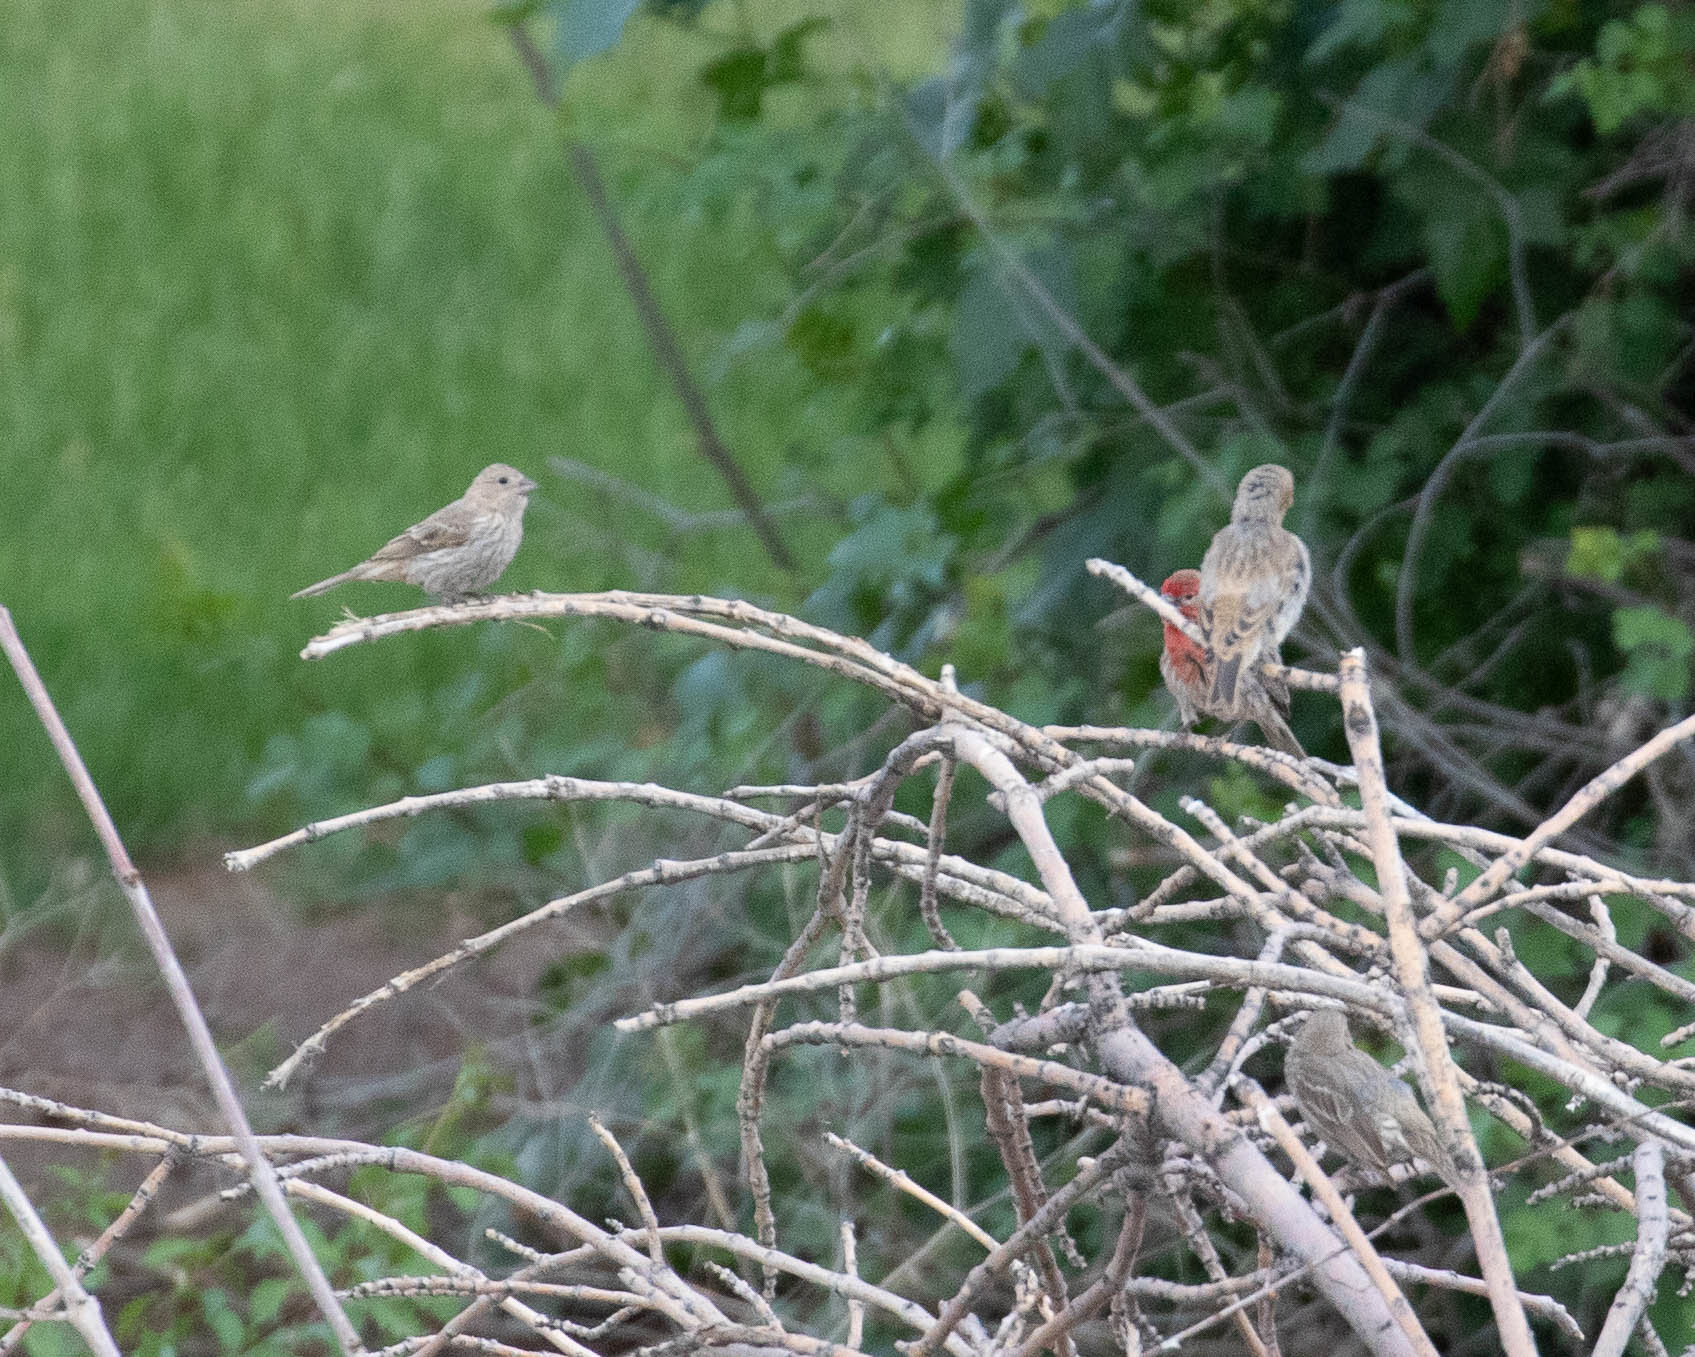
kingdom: Animalia
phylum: Chordata
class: Aves
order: Passeriformes
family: Fringillidae
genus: Haemorhous
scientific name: Haemorhous mexicanus
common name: House finch
